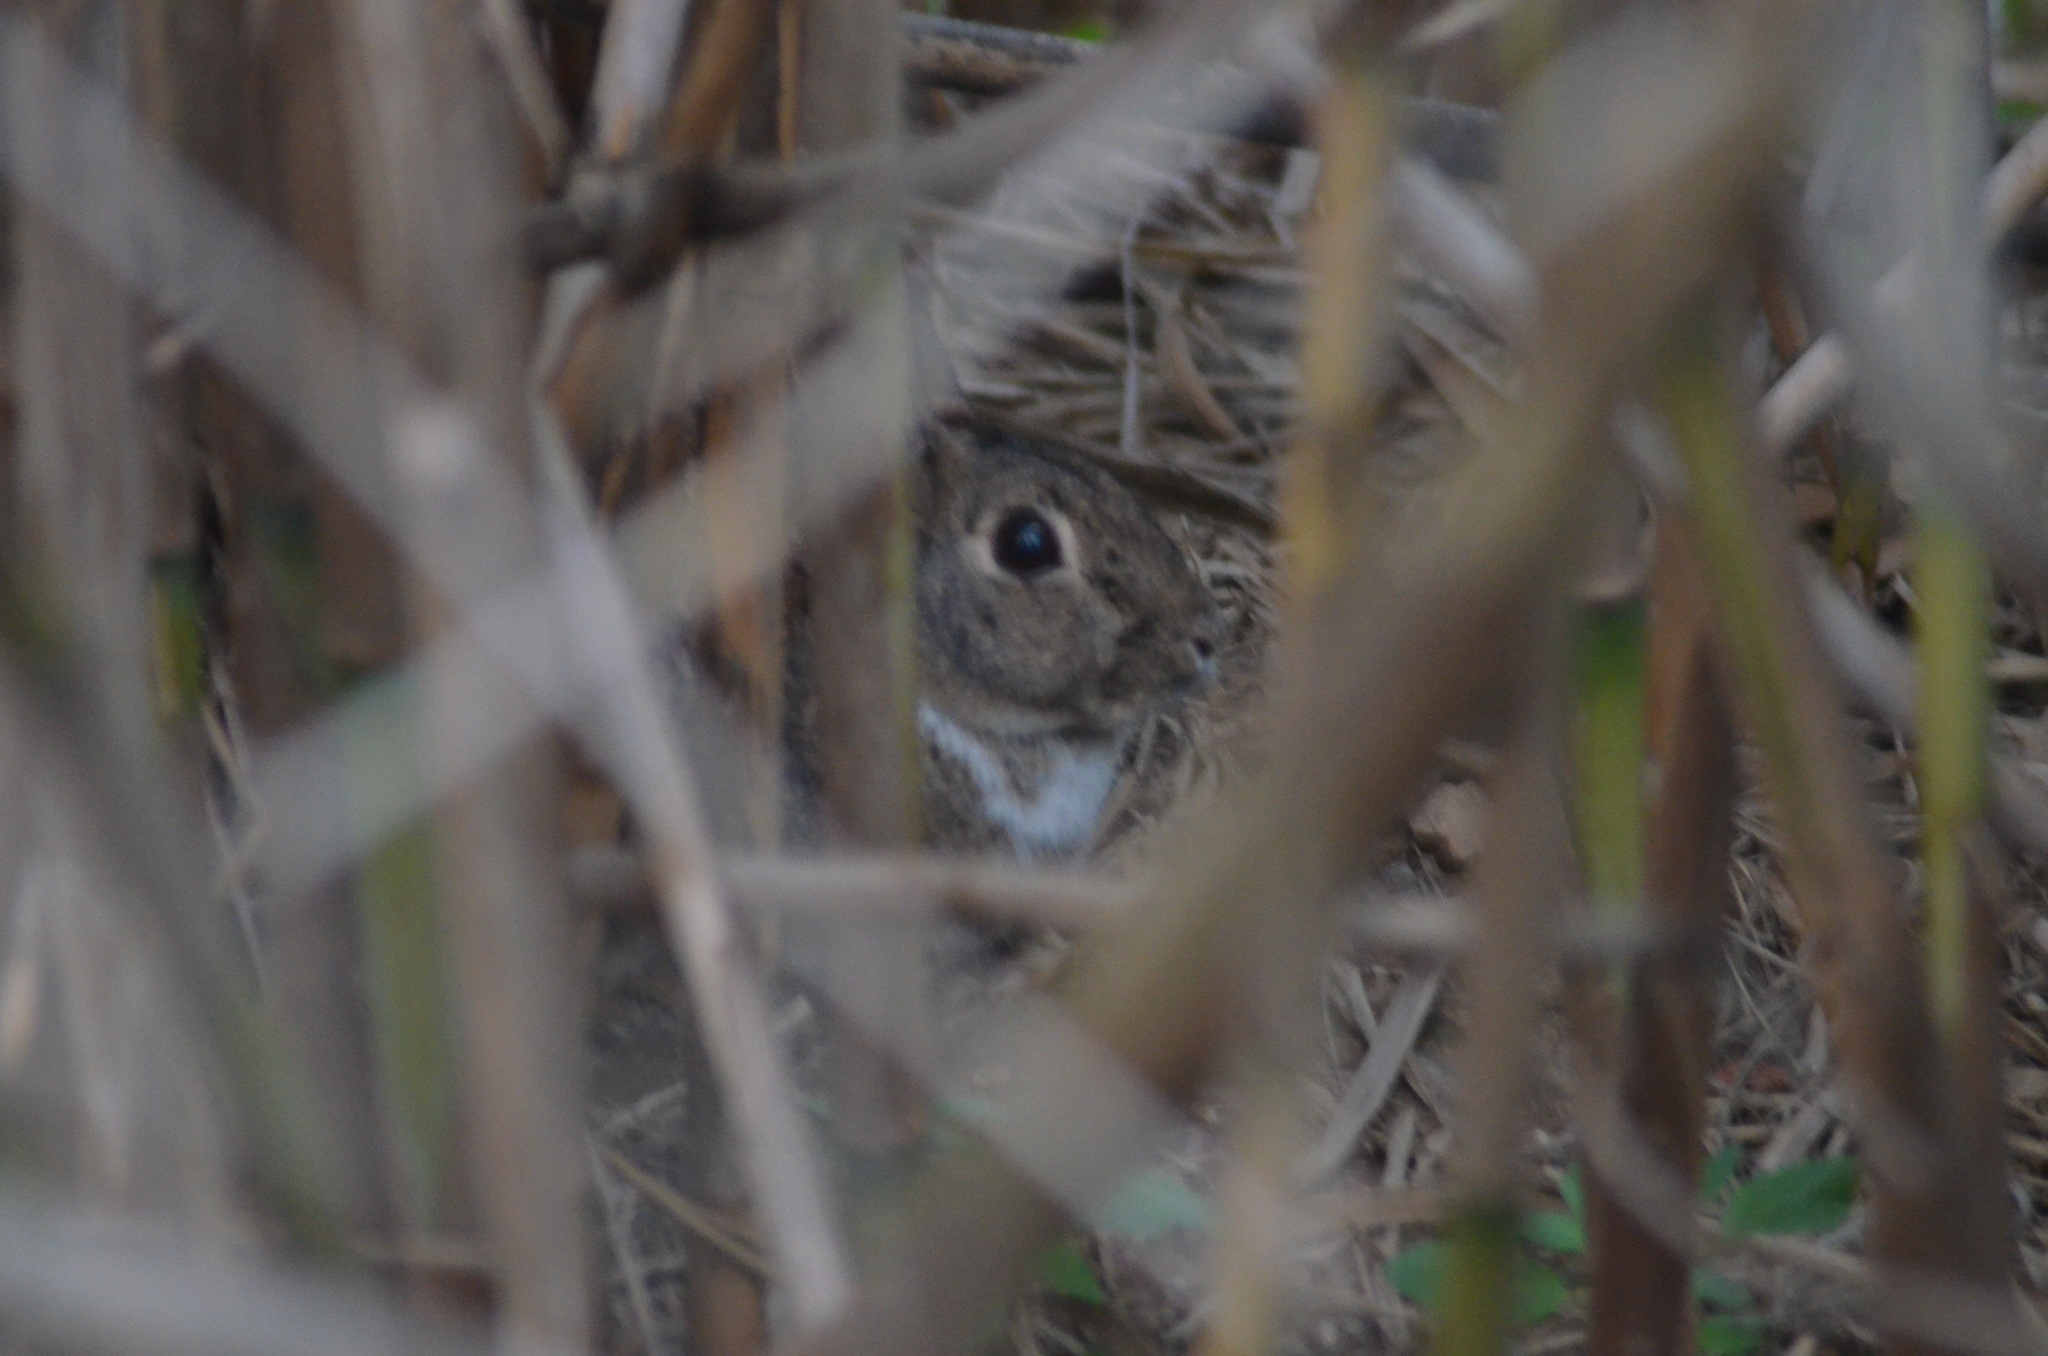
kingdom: Animalia
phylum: Chordata
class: Mammalia
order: Lagomorpha
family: Leporidae
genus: Oryctolagus
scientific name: Oryctolagus cuniculus
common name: European rabbit
